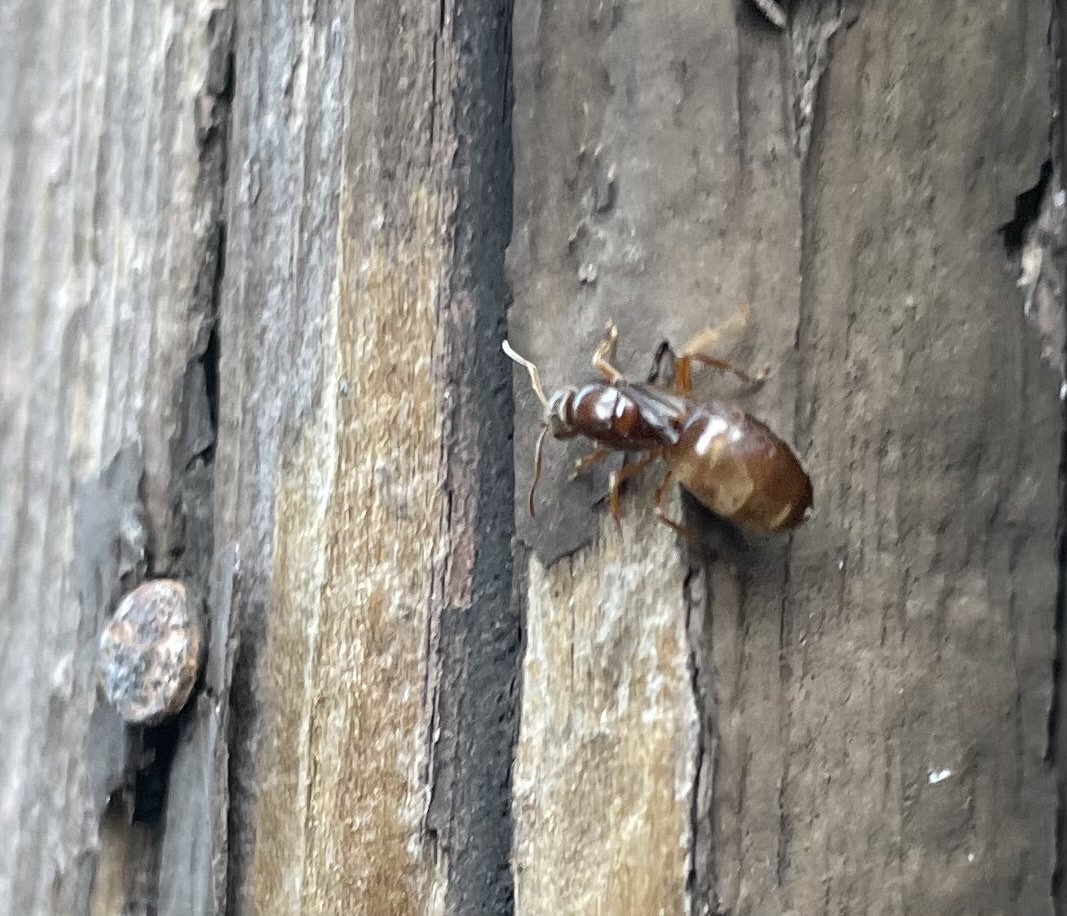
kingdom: Animalia
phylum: Arthropoda
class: Insecta
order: Hymenoptera
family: Formicidae
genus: Prenolepis
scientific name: Prenolepis imparis
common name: Small honey ant
